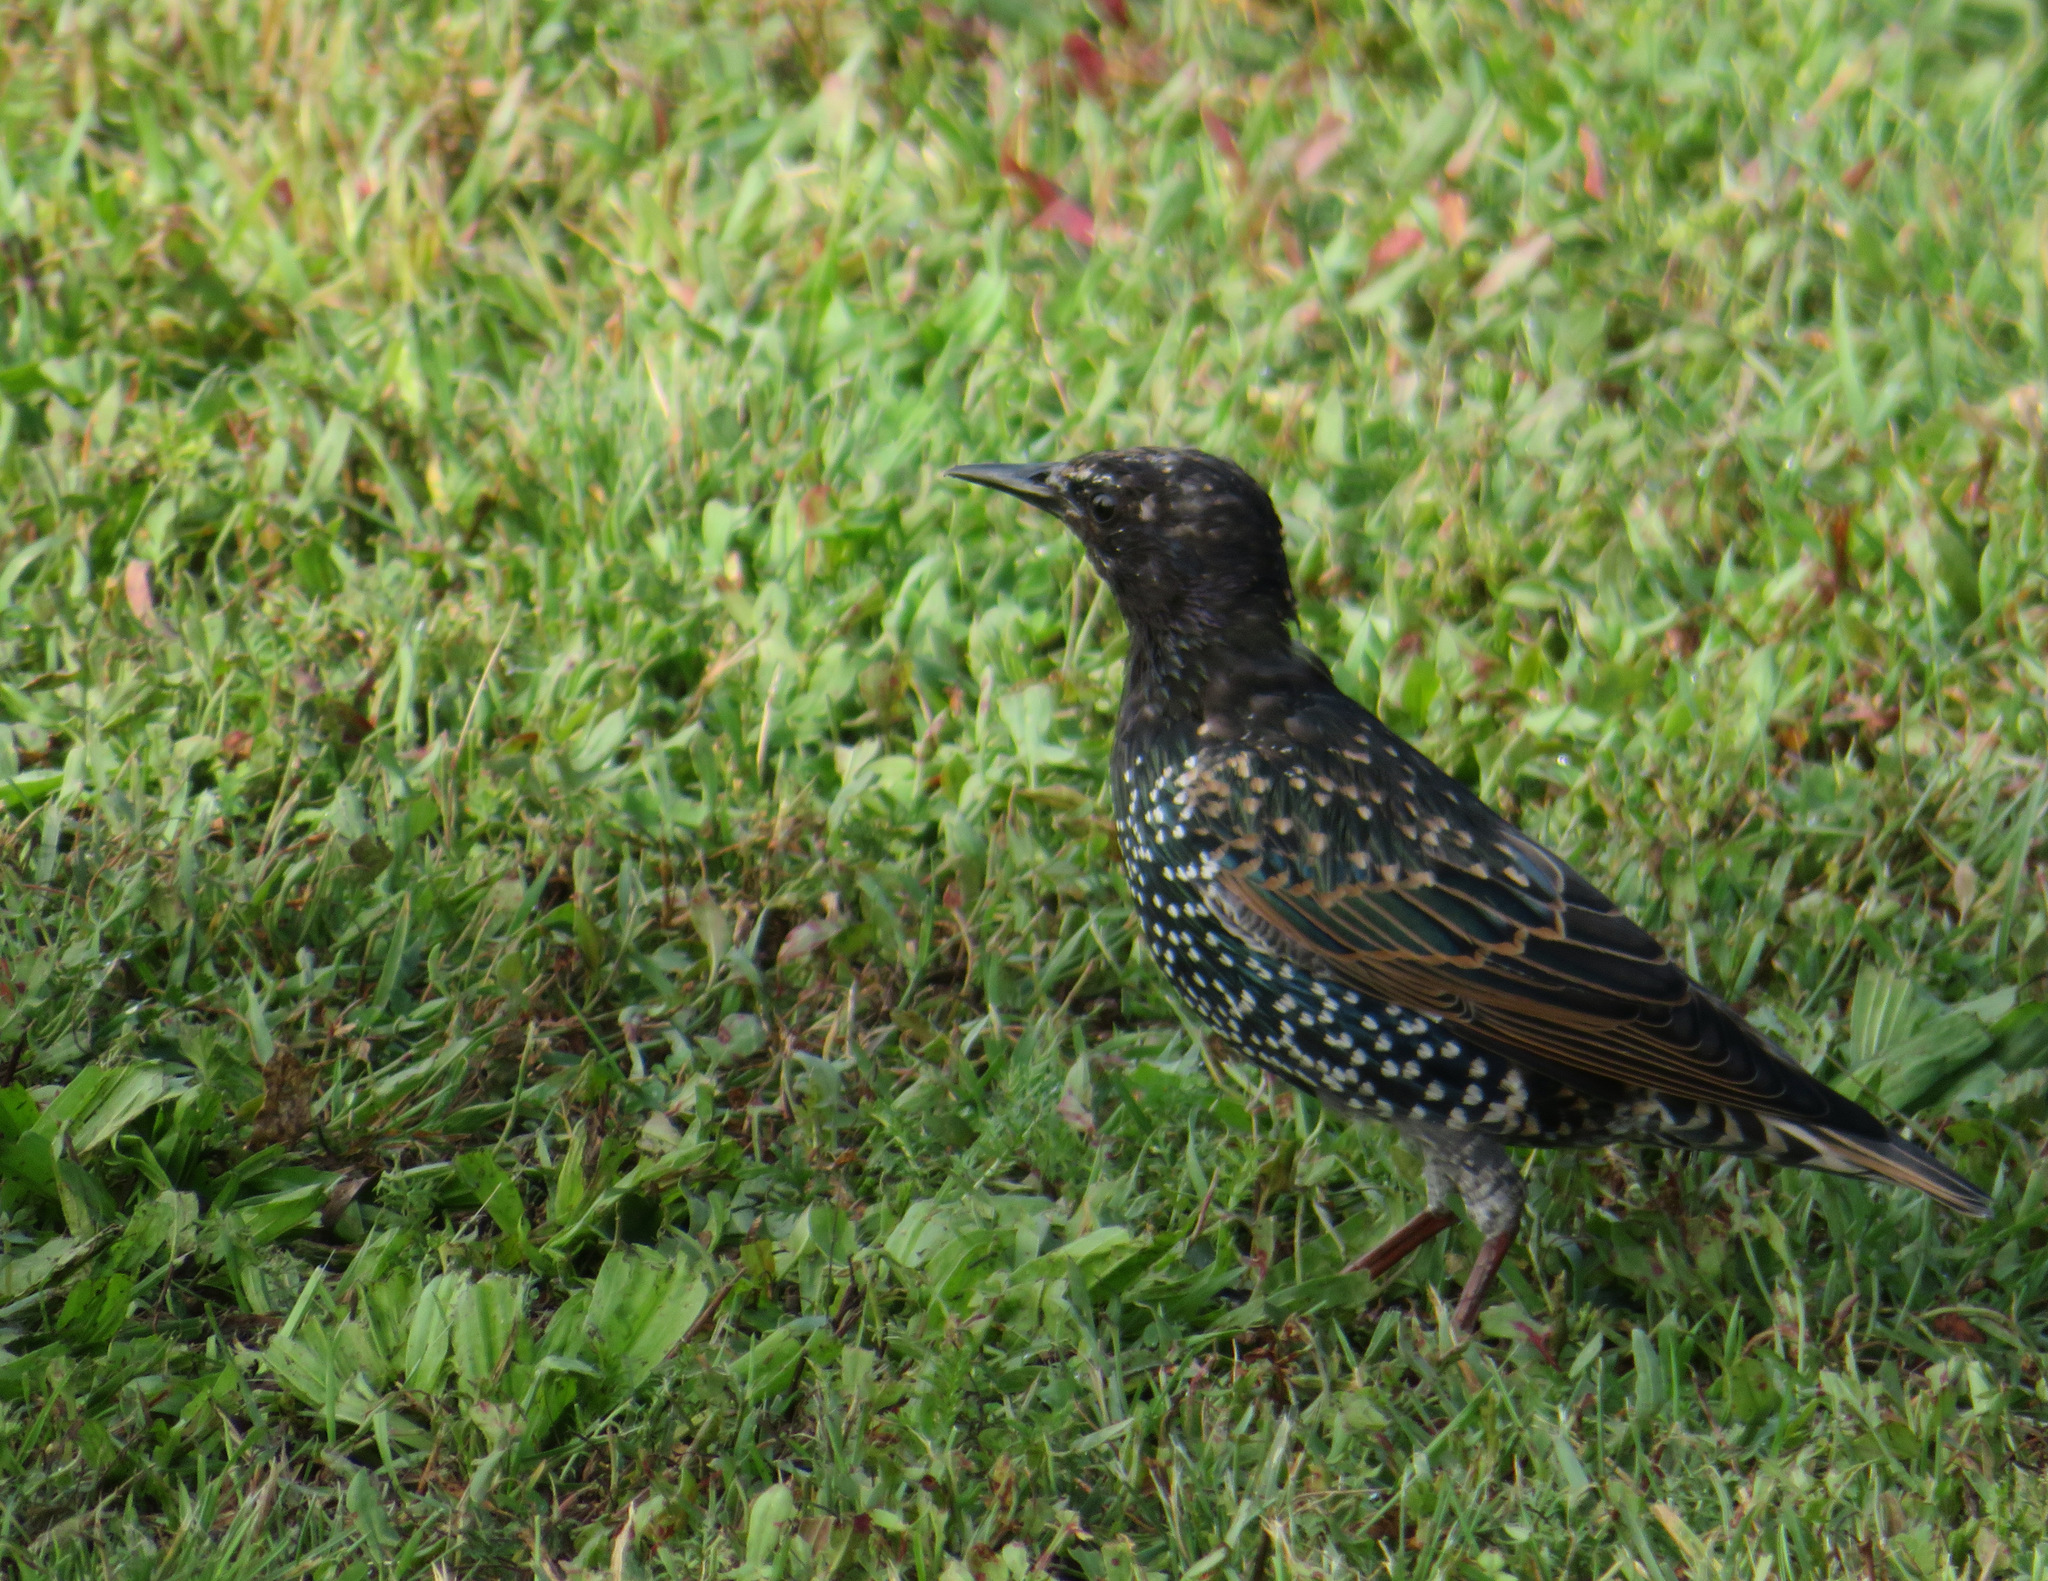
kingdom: Animalia
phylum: Chordata
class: Aves
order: Passeriformes
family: Sturnidae
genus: Sturnus
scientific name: Sturnus vulgaris
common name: Common starling
